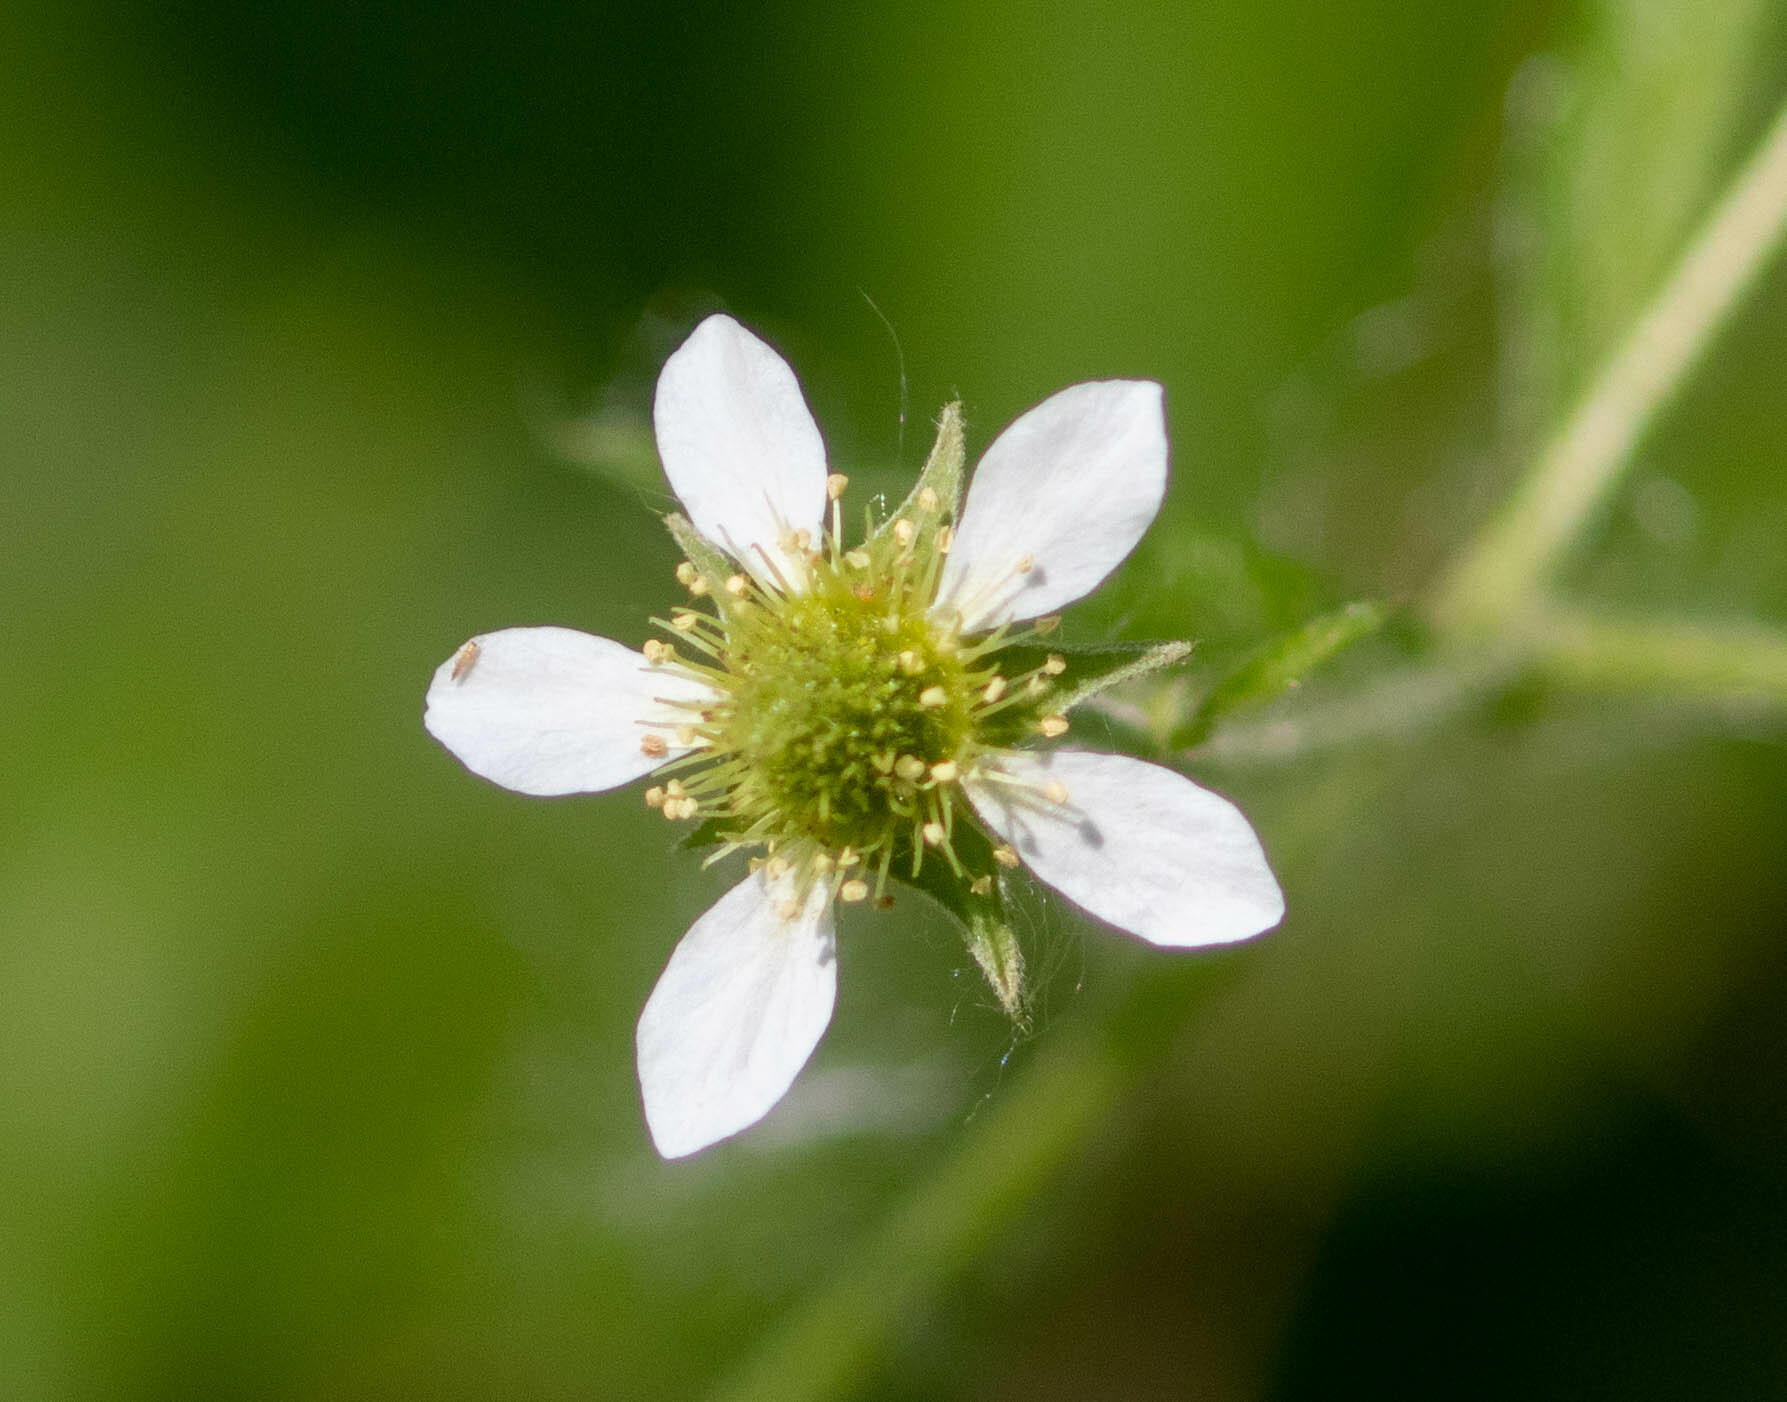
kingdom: Plantae
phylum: Tracheophyta
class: Magnoliopsida
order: Rosales
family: Rosaceae
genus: Geum
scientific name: Geum canadense
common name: White avens
